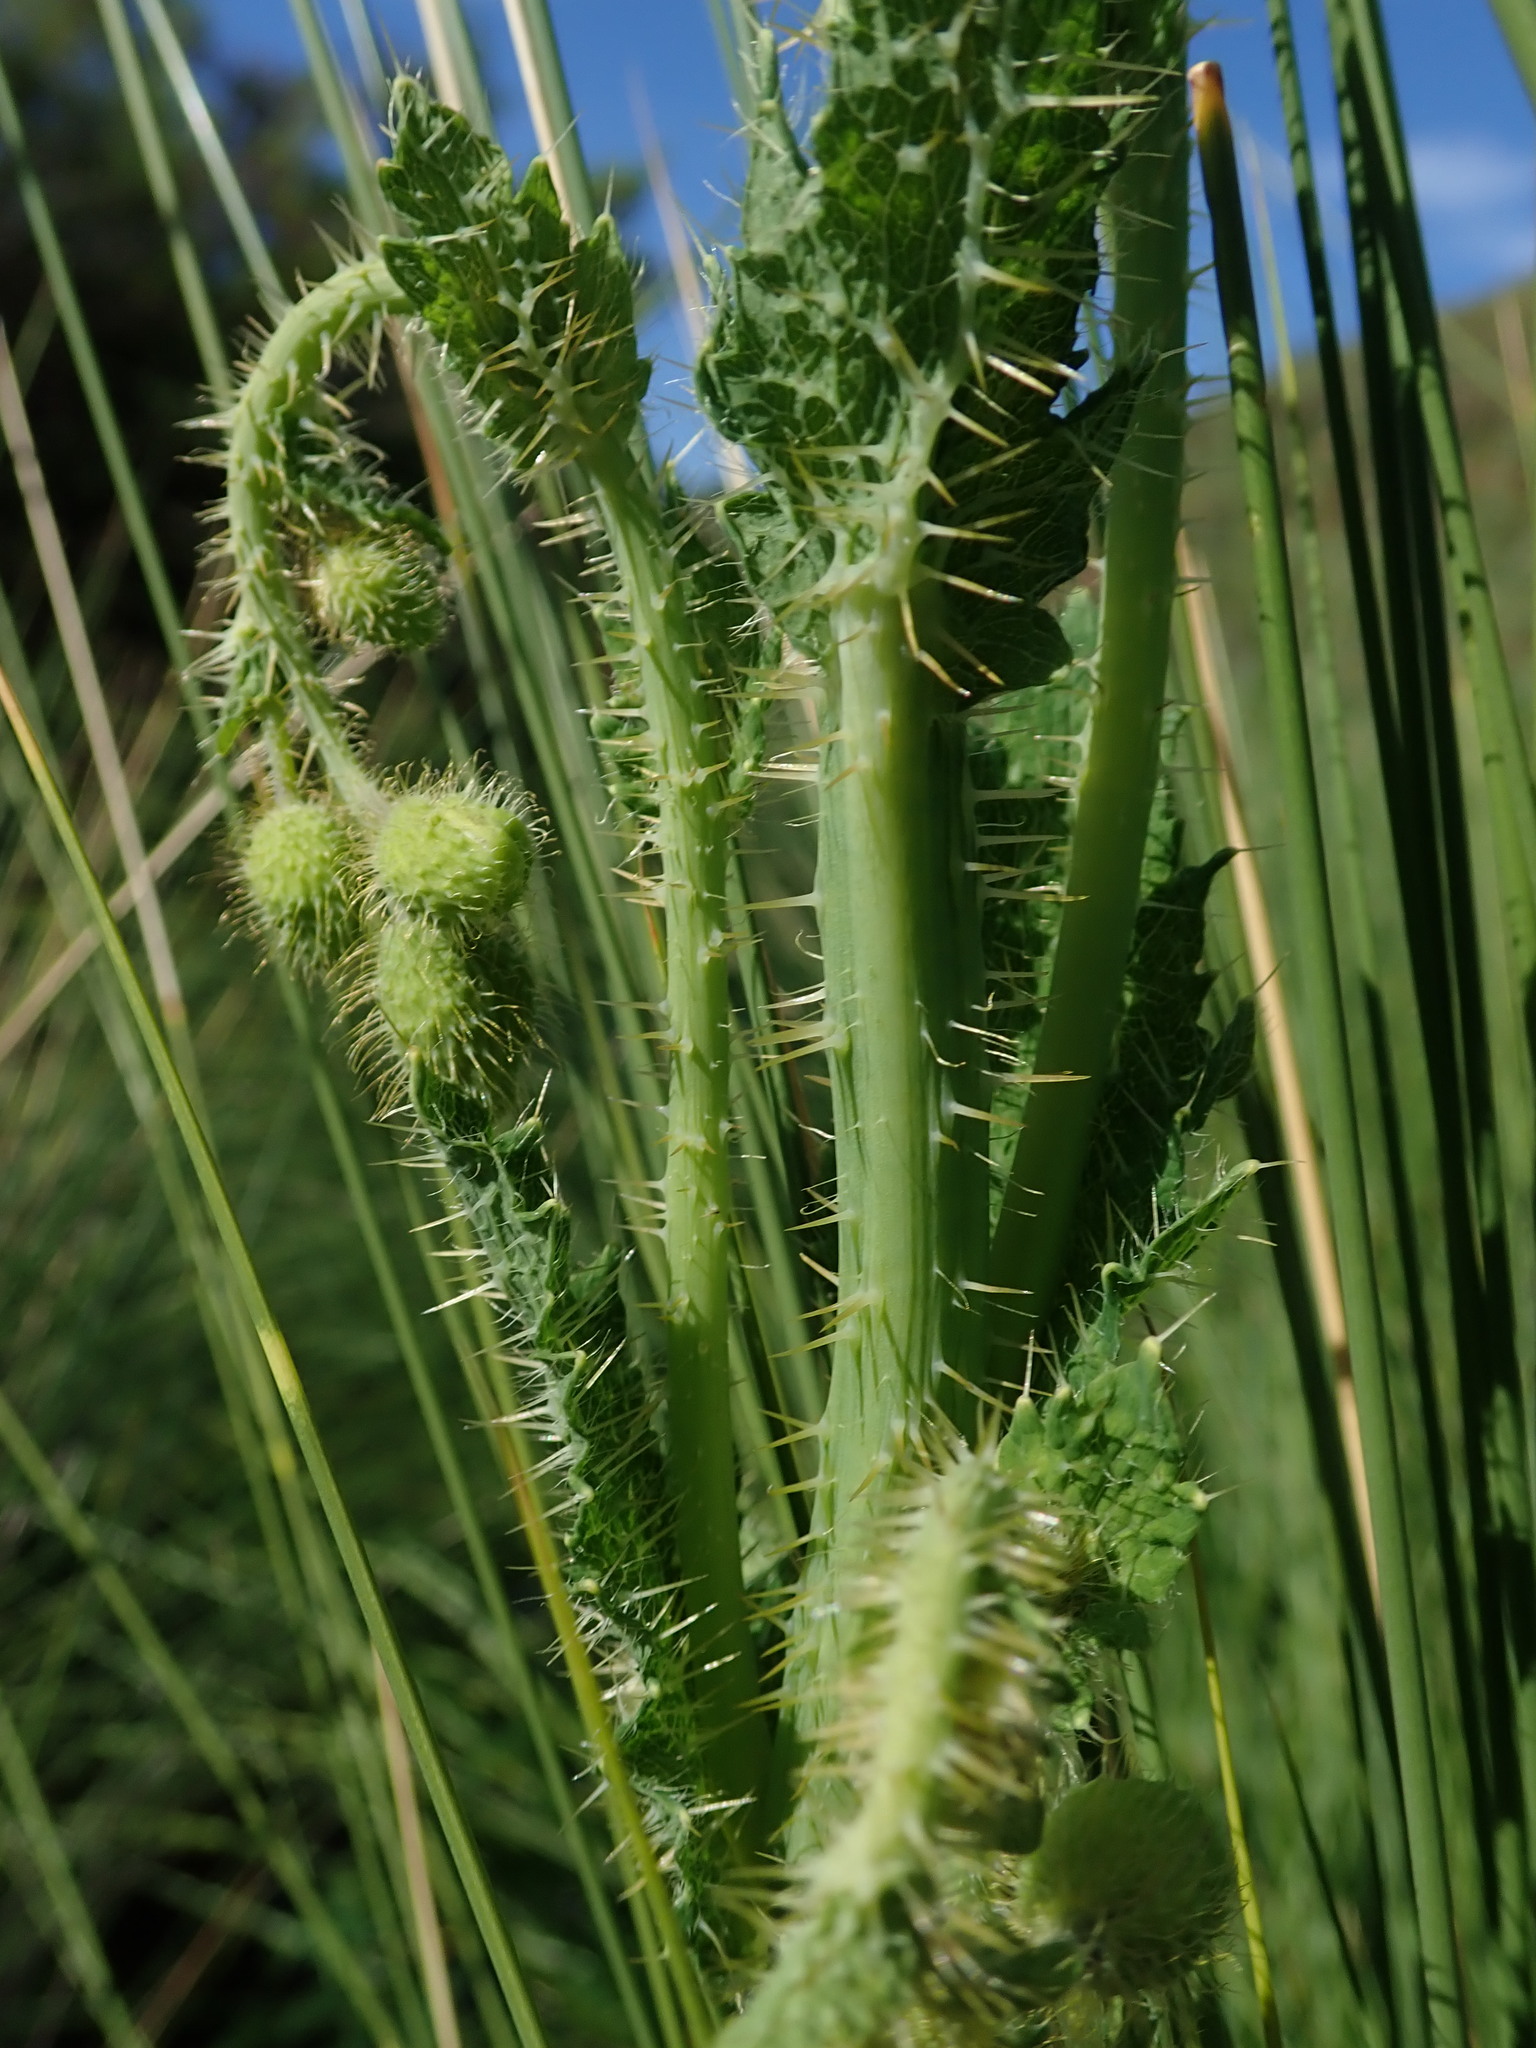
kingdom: Plantae
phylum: Tracheophyta
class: Magnoliopsida
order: Ranunculales
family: Papaveraceae
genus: Papaver
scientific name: Papaver aculeatum
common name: Bristle poppy
